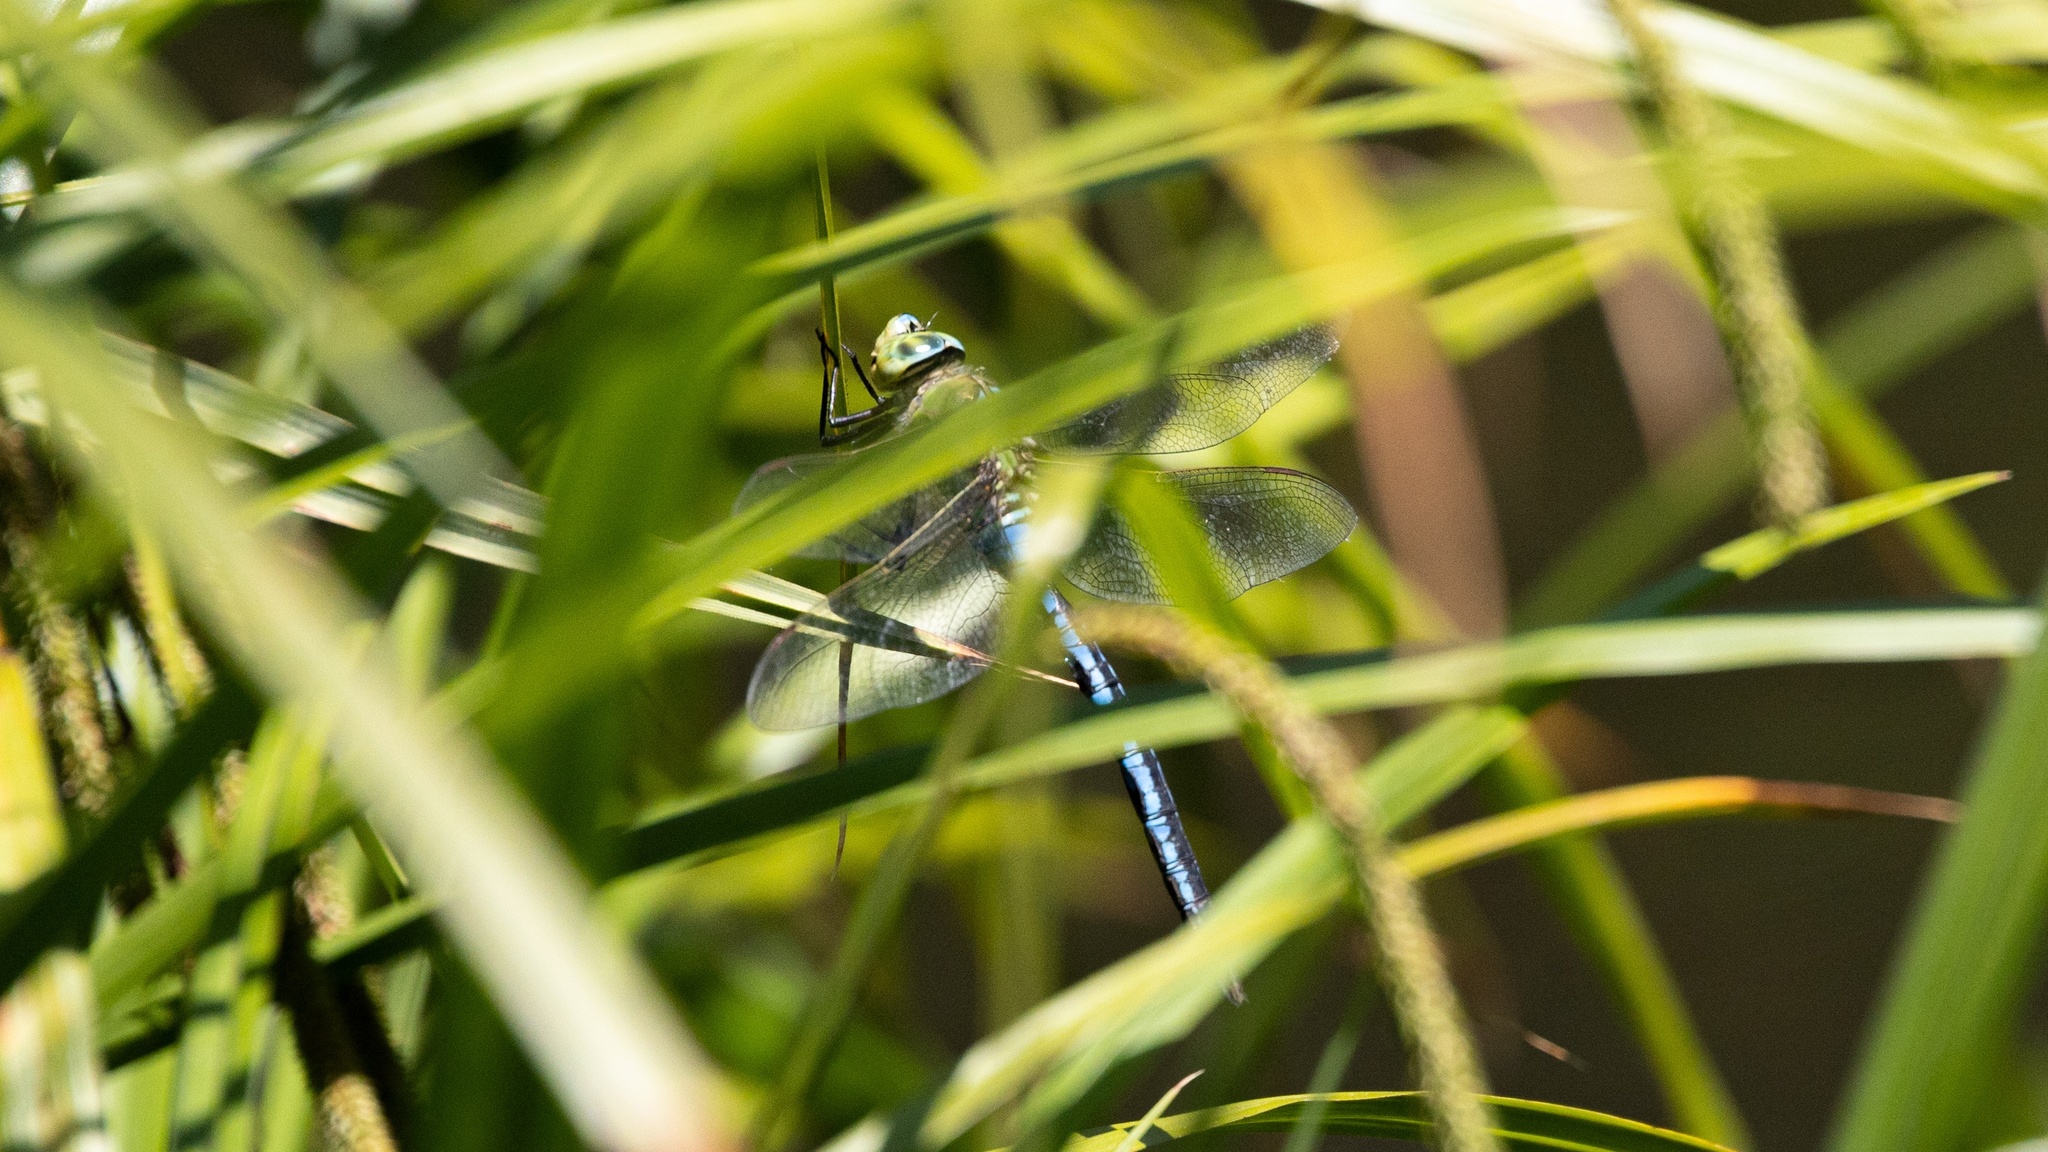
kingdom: Animalia
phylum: Arthropoda
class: Insecta
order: Odonata
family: Aeshnidae
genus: Anax
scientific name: Anax imperator
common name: Emperor dragonfly
